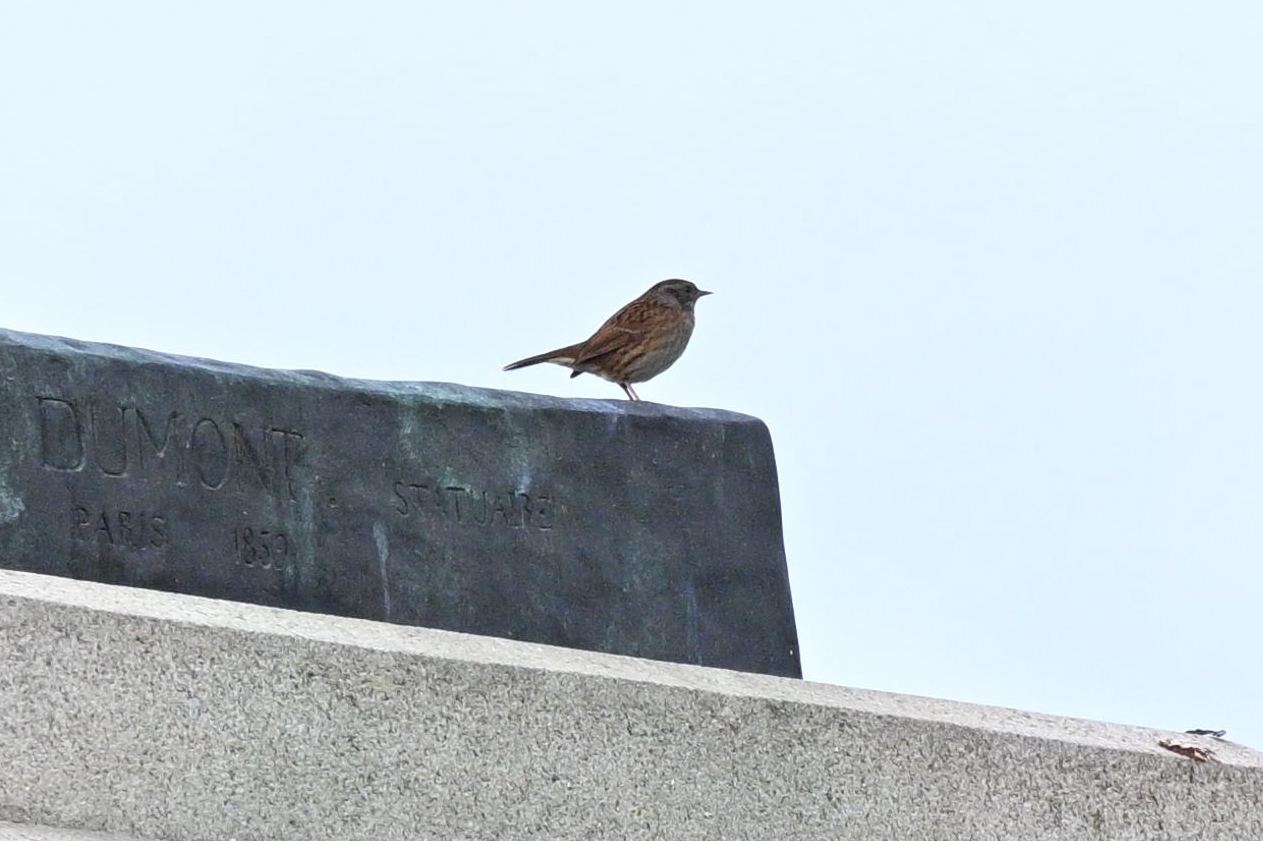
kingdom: Animalia
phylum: Chordata
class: Aves
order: Passeriformes
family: Prunellidae
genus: Prunella
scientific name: Prunella modularis
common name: Dunnock
